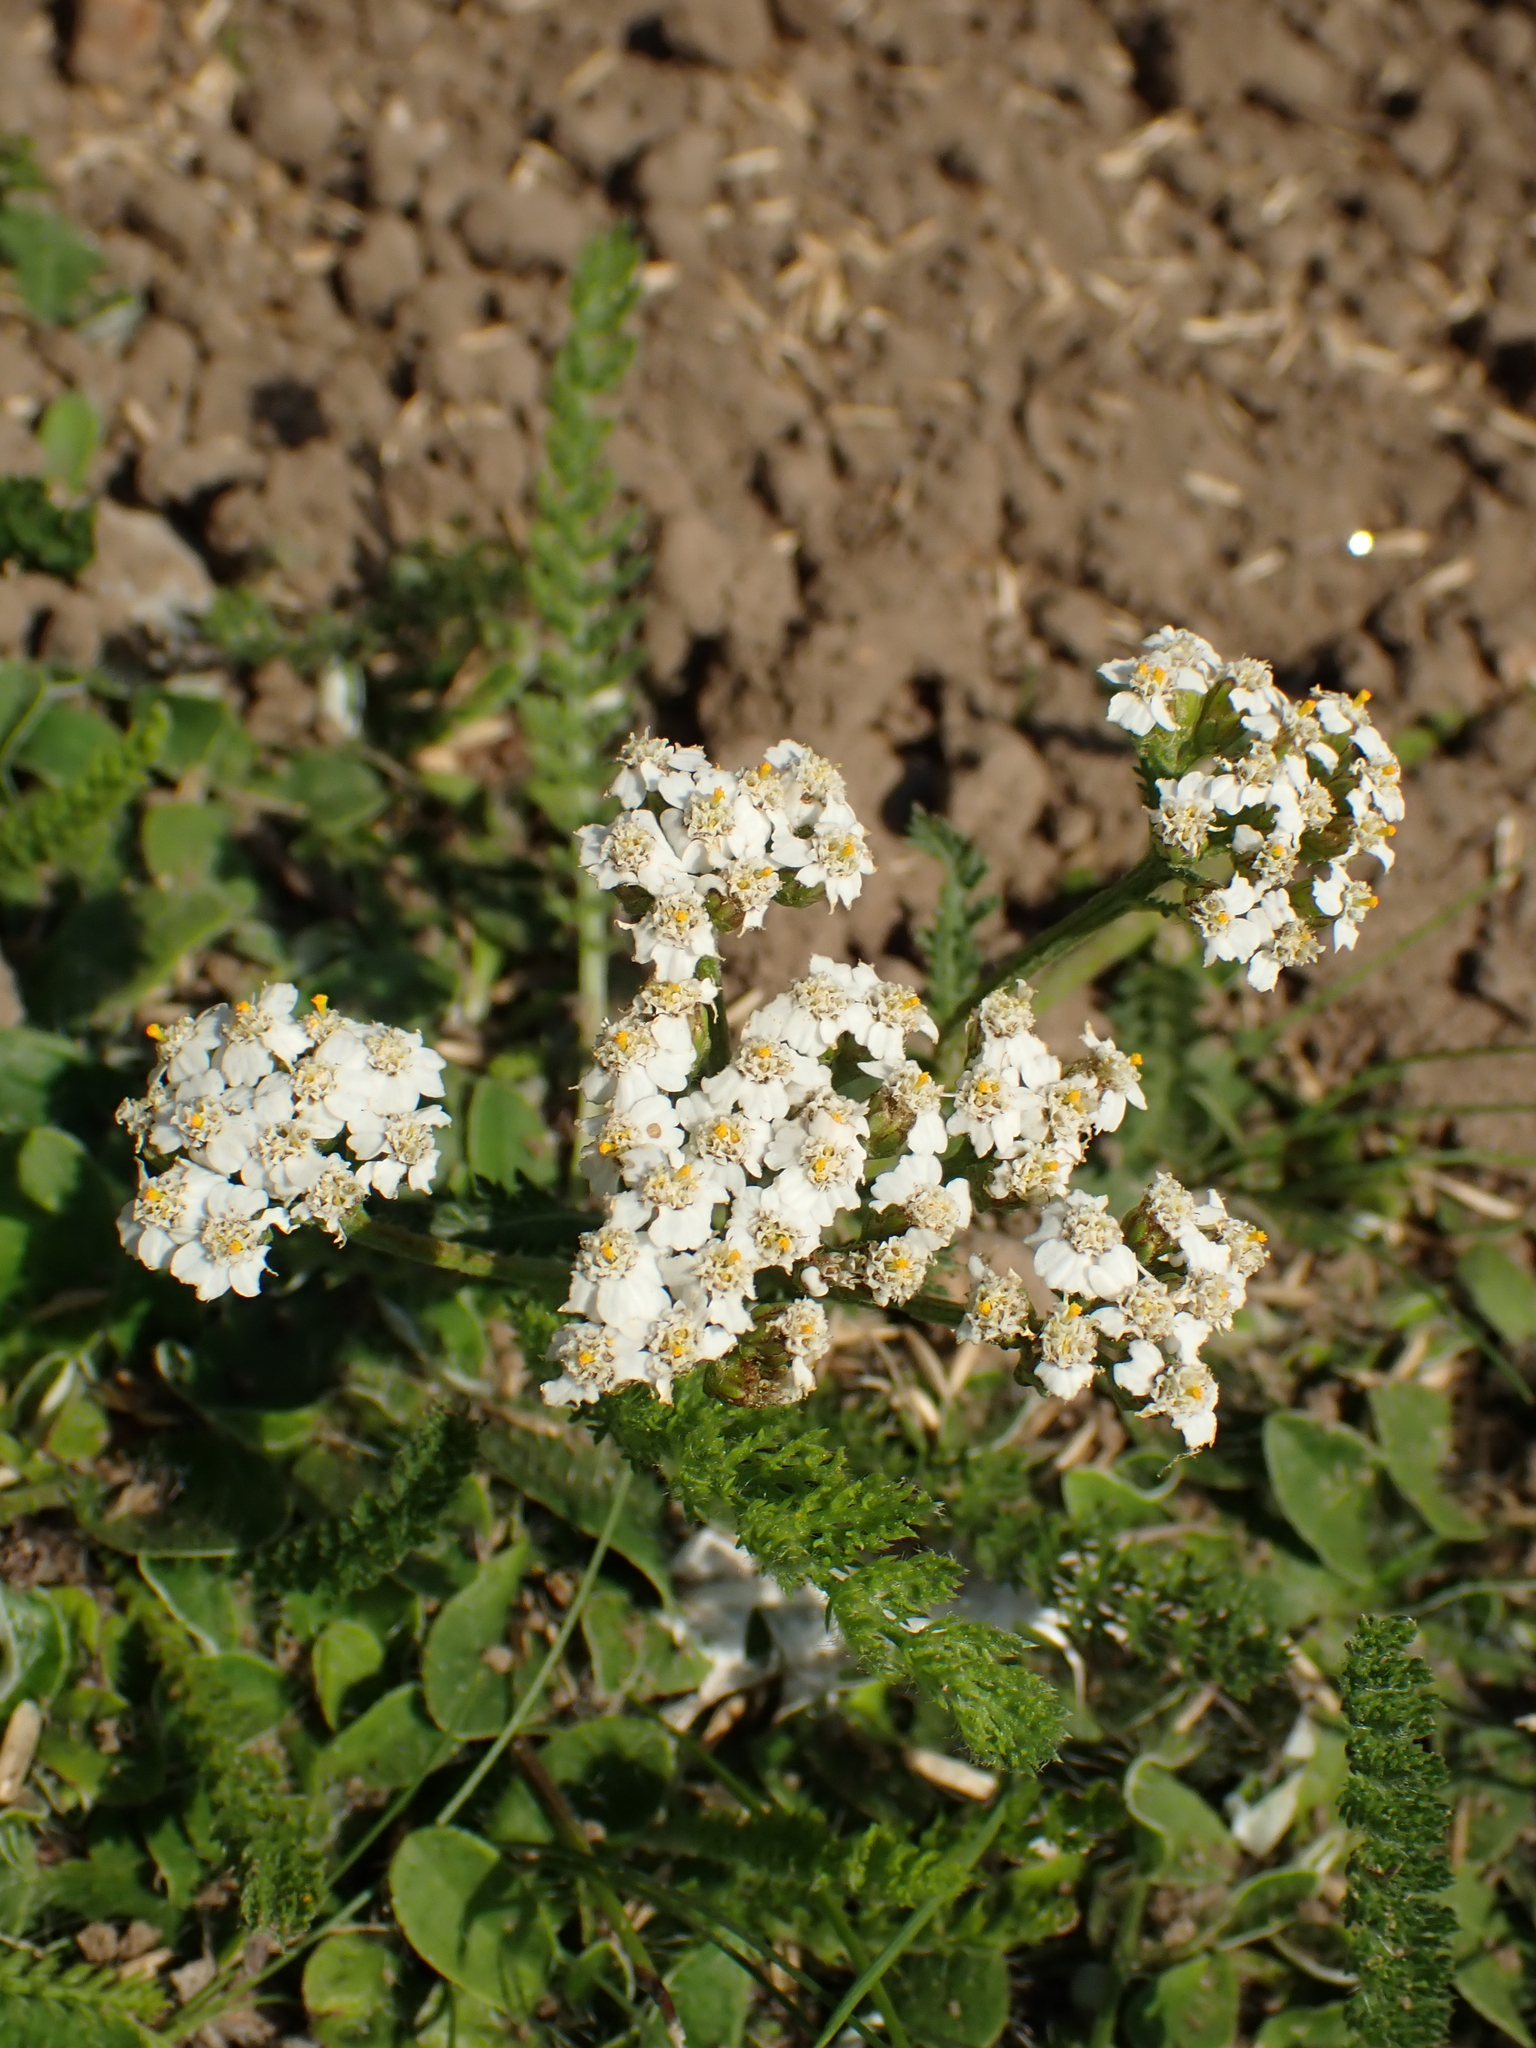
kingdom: Plantae
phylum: Tracheophyta
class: Magnoliopsida
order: Asterales
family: Asteraceae
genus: Achillea
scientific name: Achillea millefolium
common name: Yarrow
